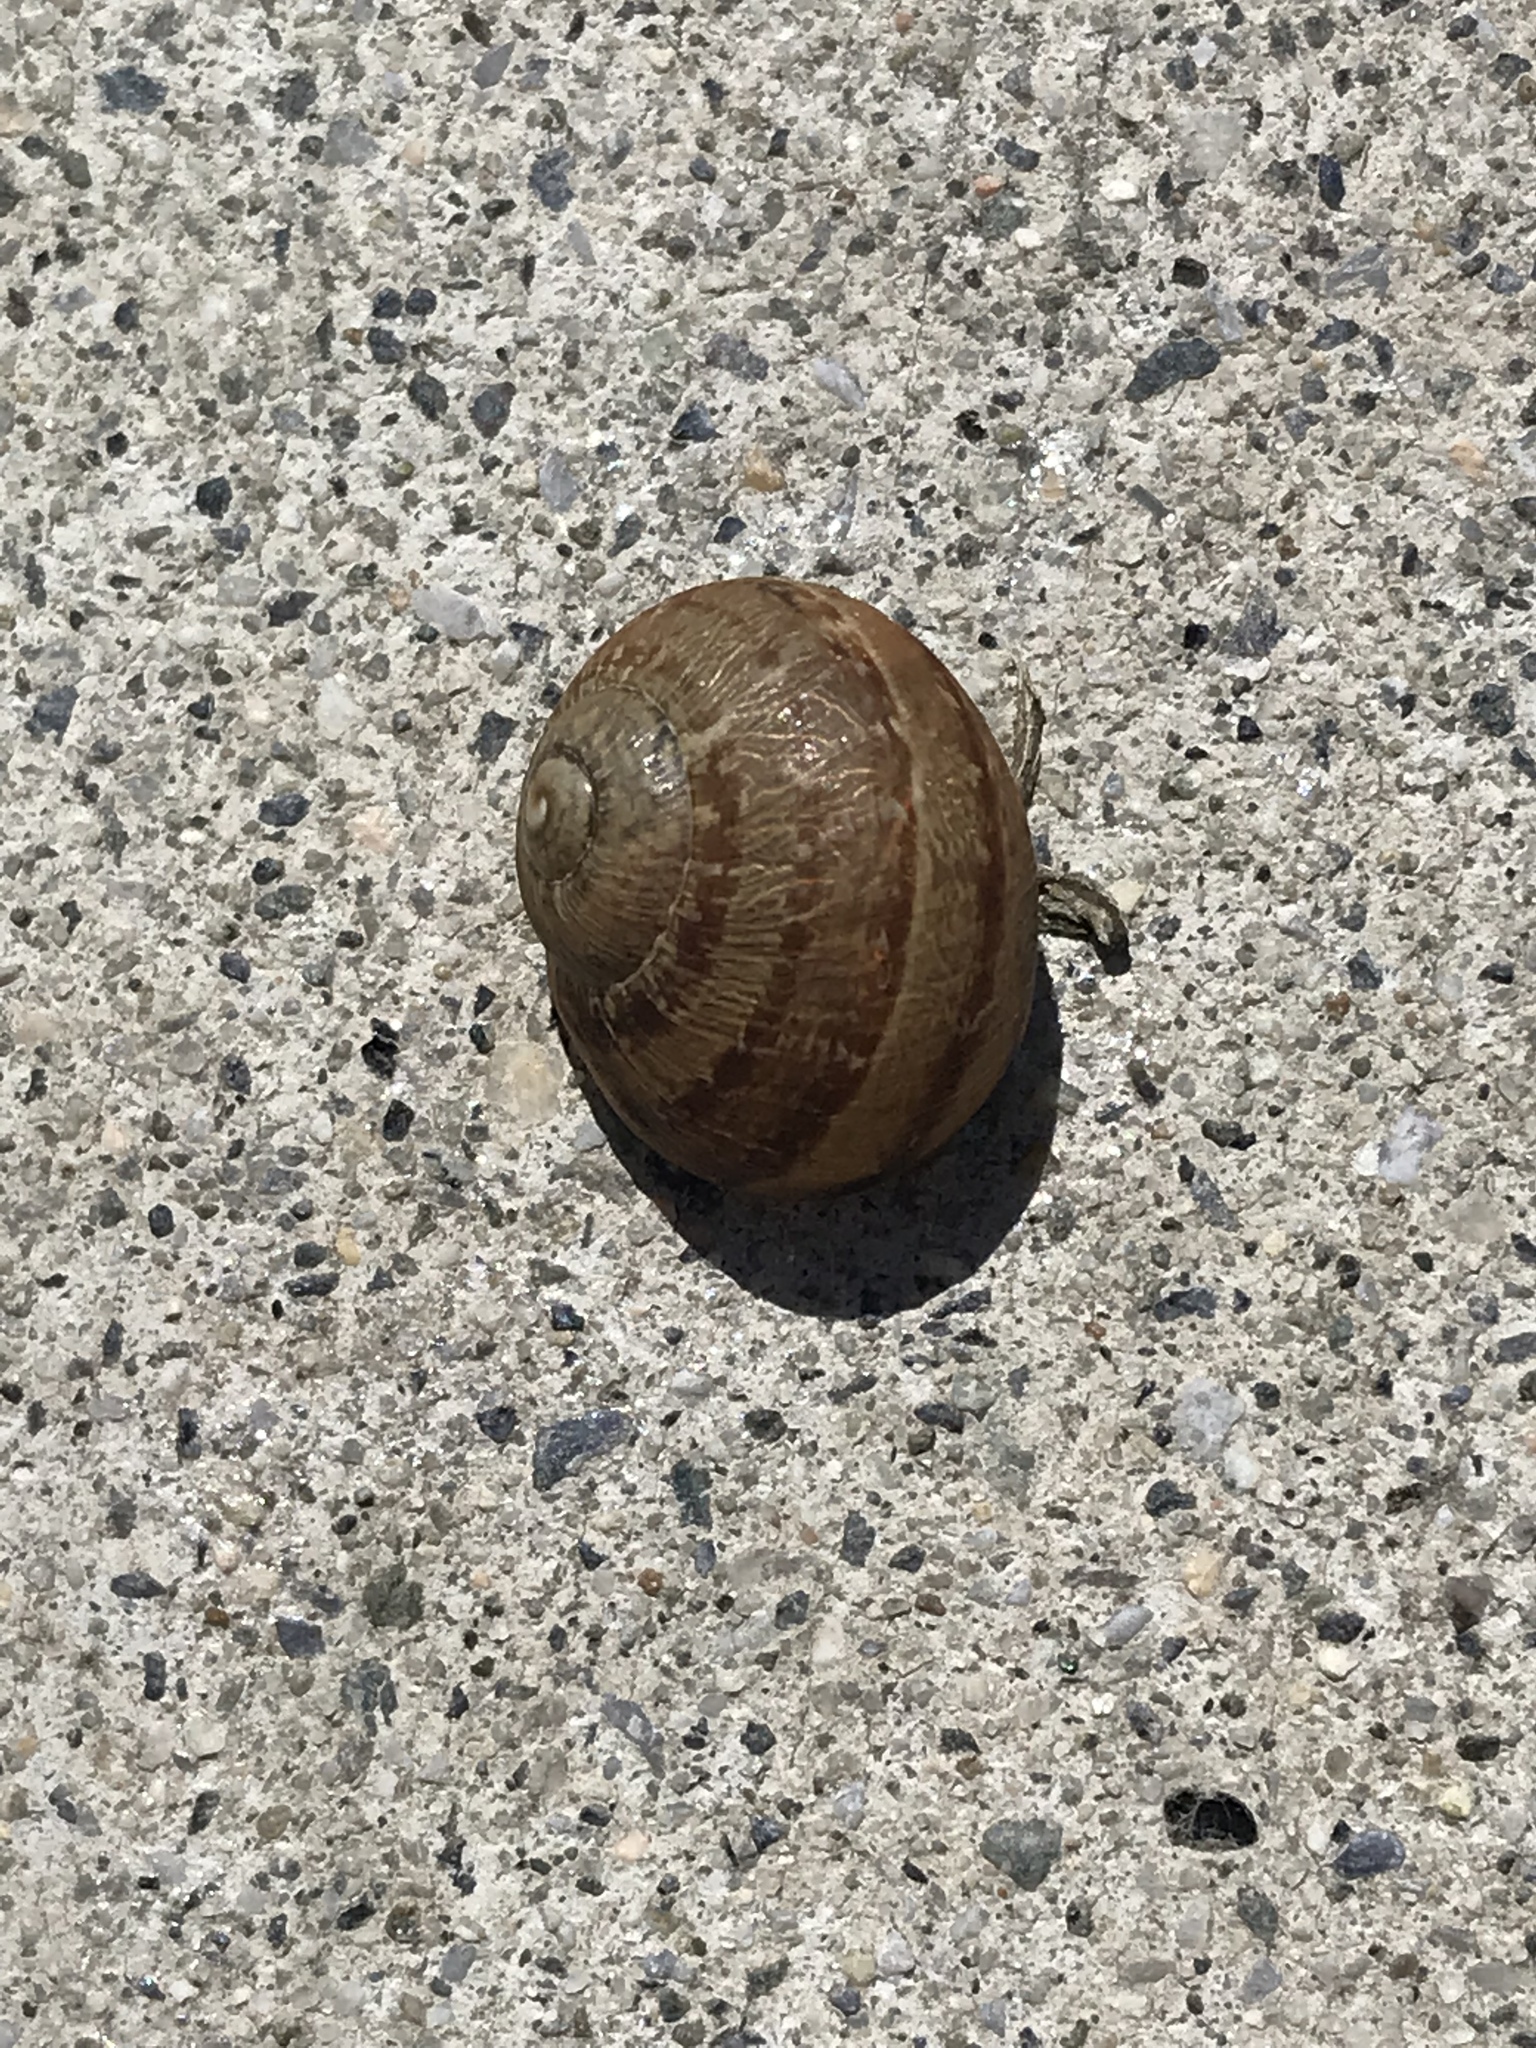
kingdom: Animalia
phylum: Mollusca
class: Gastropoda
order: Stylommatophora
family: Helicidae
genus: Cornu
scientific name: Cornu aspersum
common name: Brown garden snail
